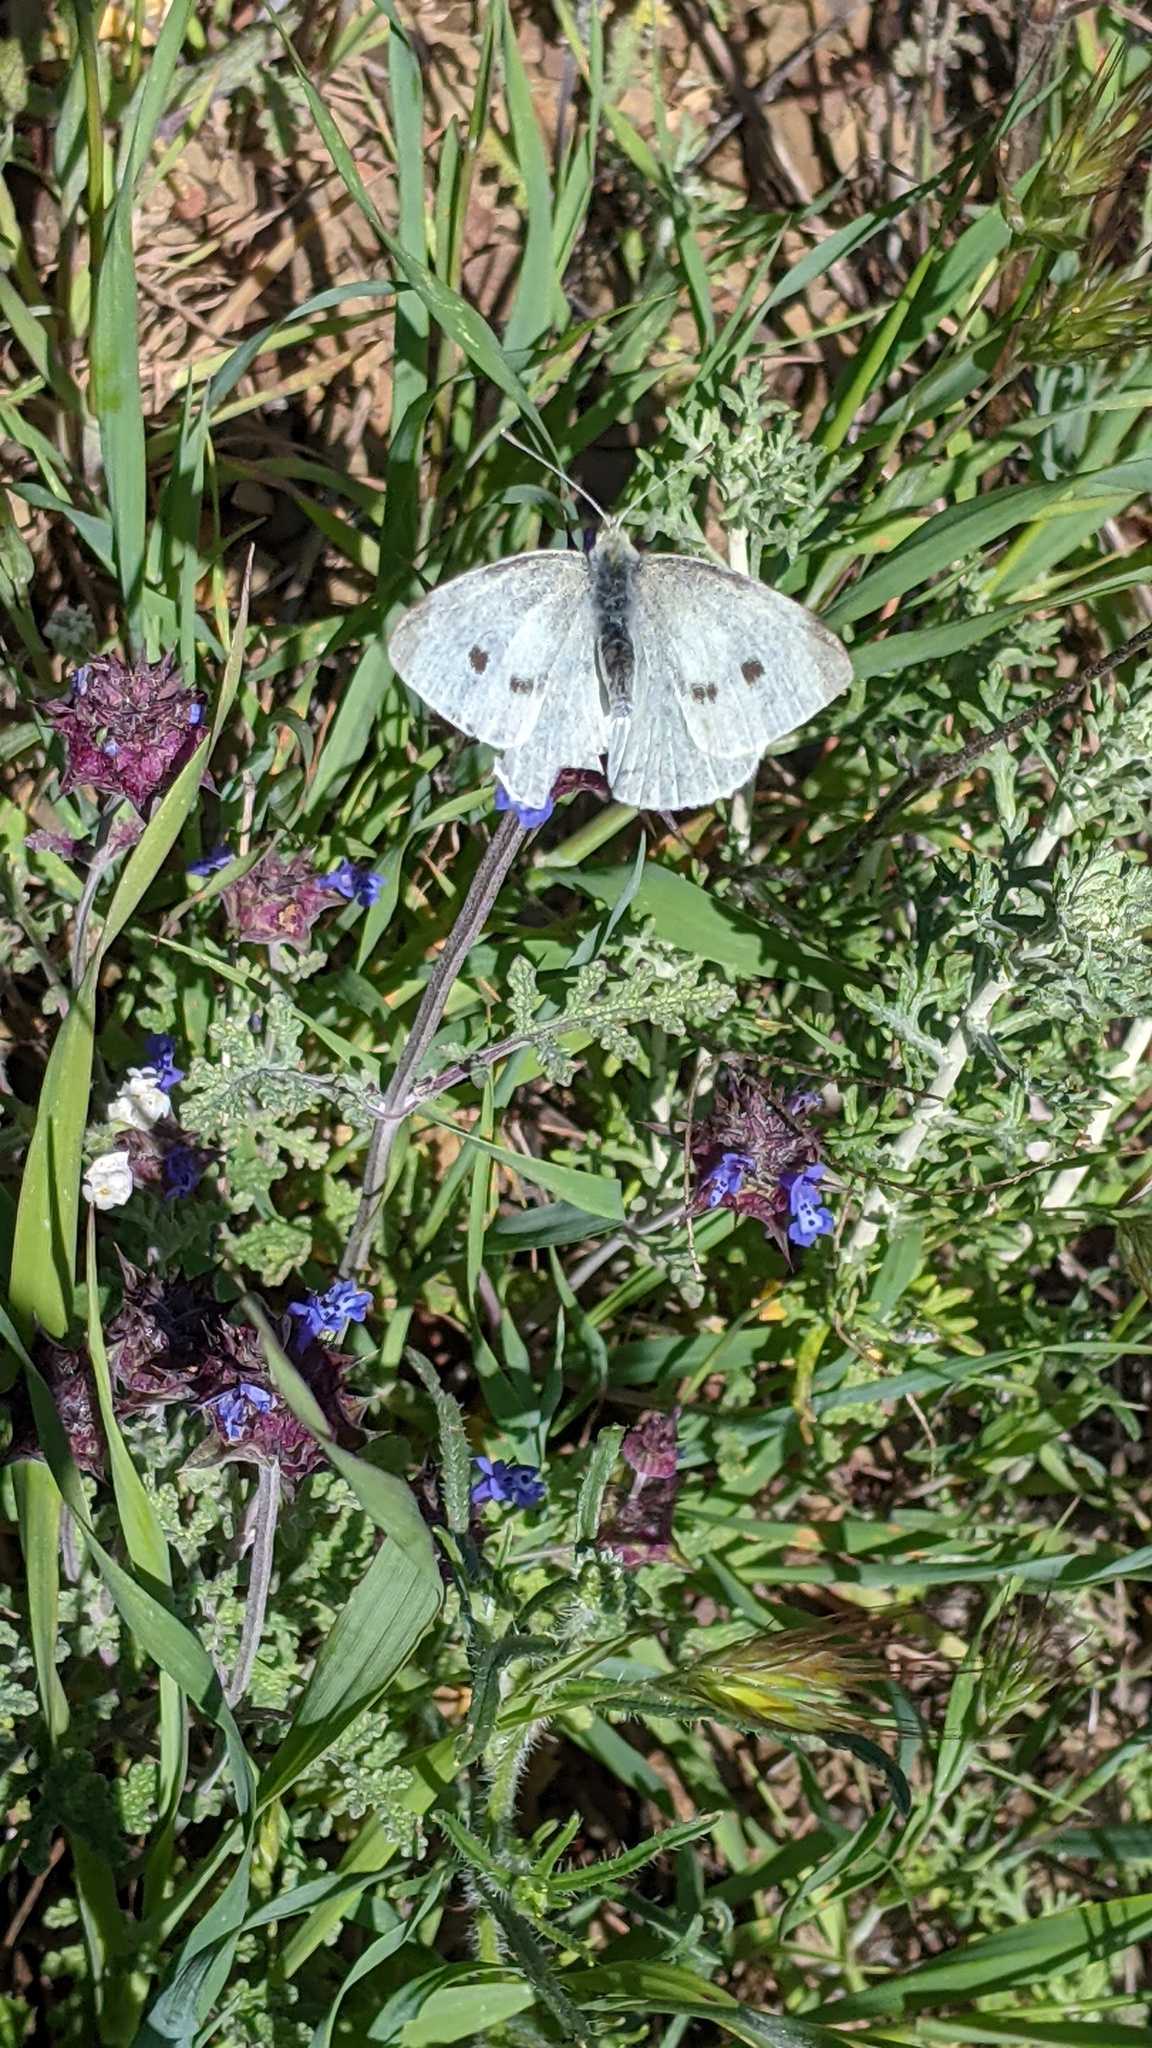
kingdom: Animalia
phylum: Arthropoda
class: Insecta
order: Lepidoptera
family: Pieridae
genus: Pieris
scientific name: Pieris rapae
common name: Small white
